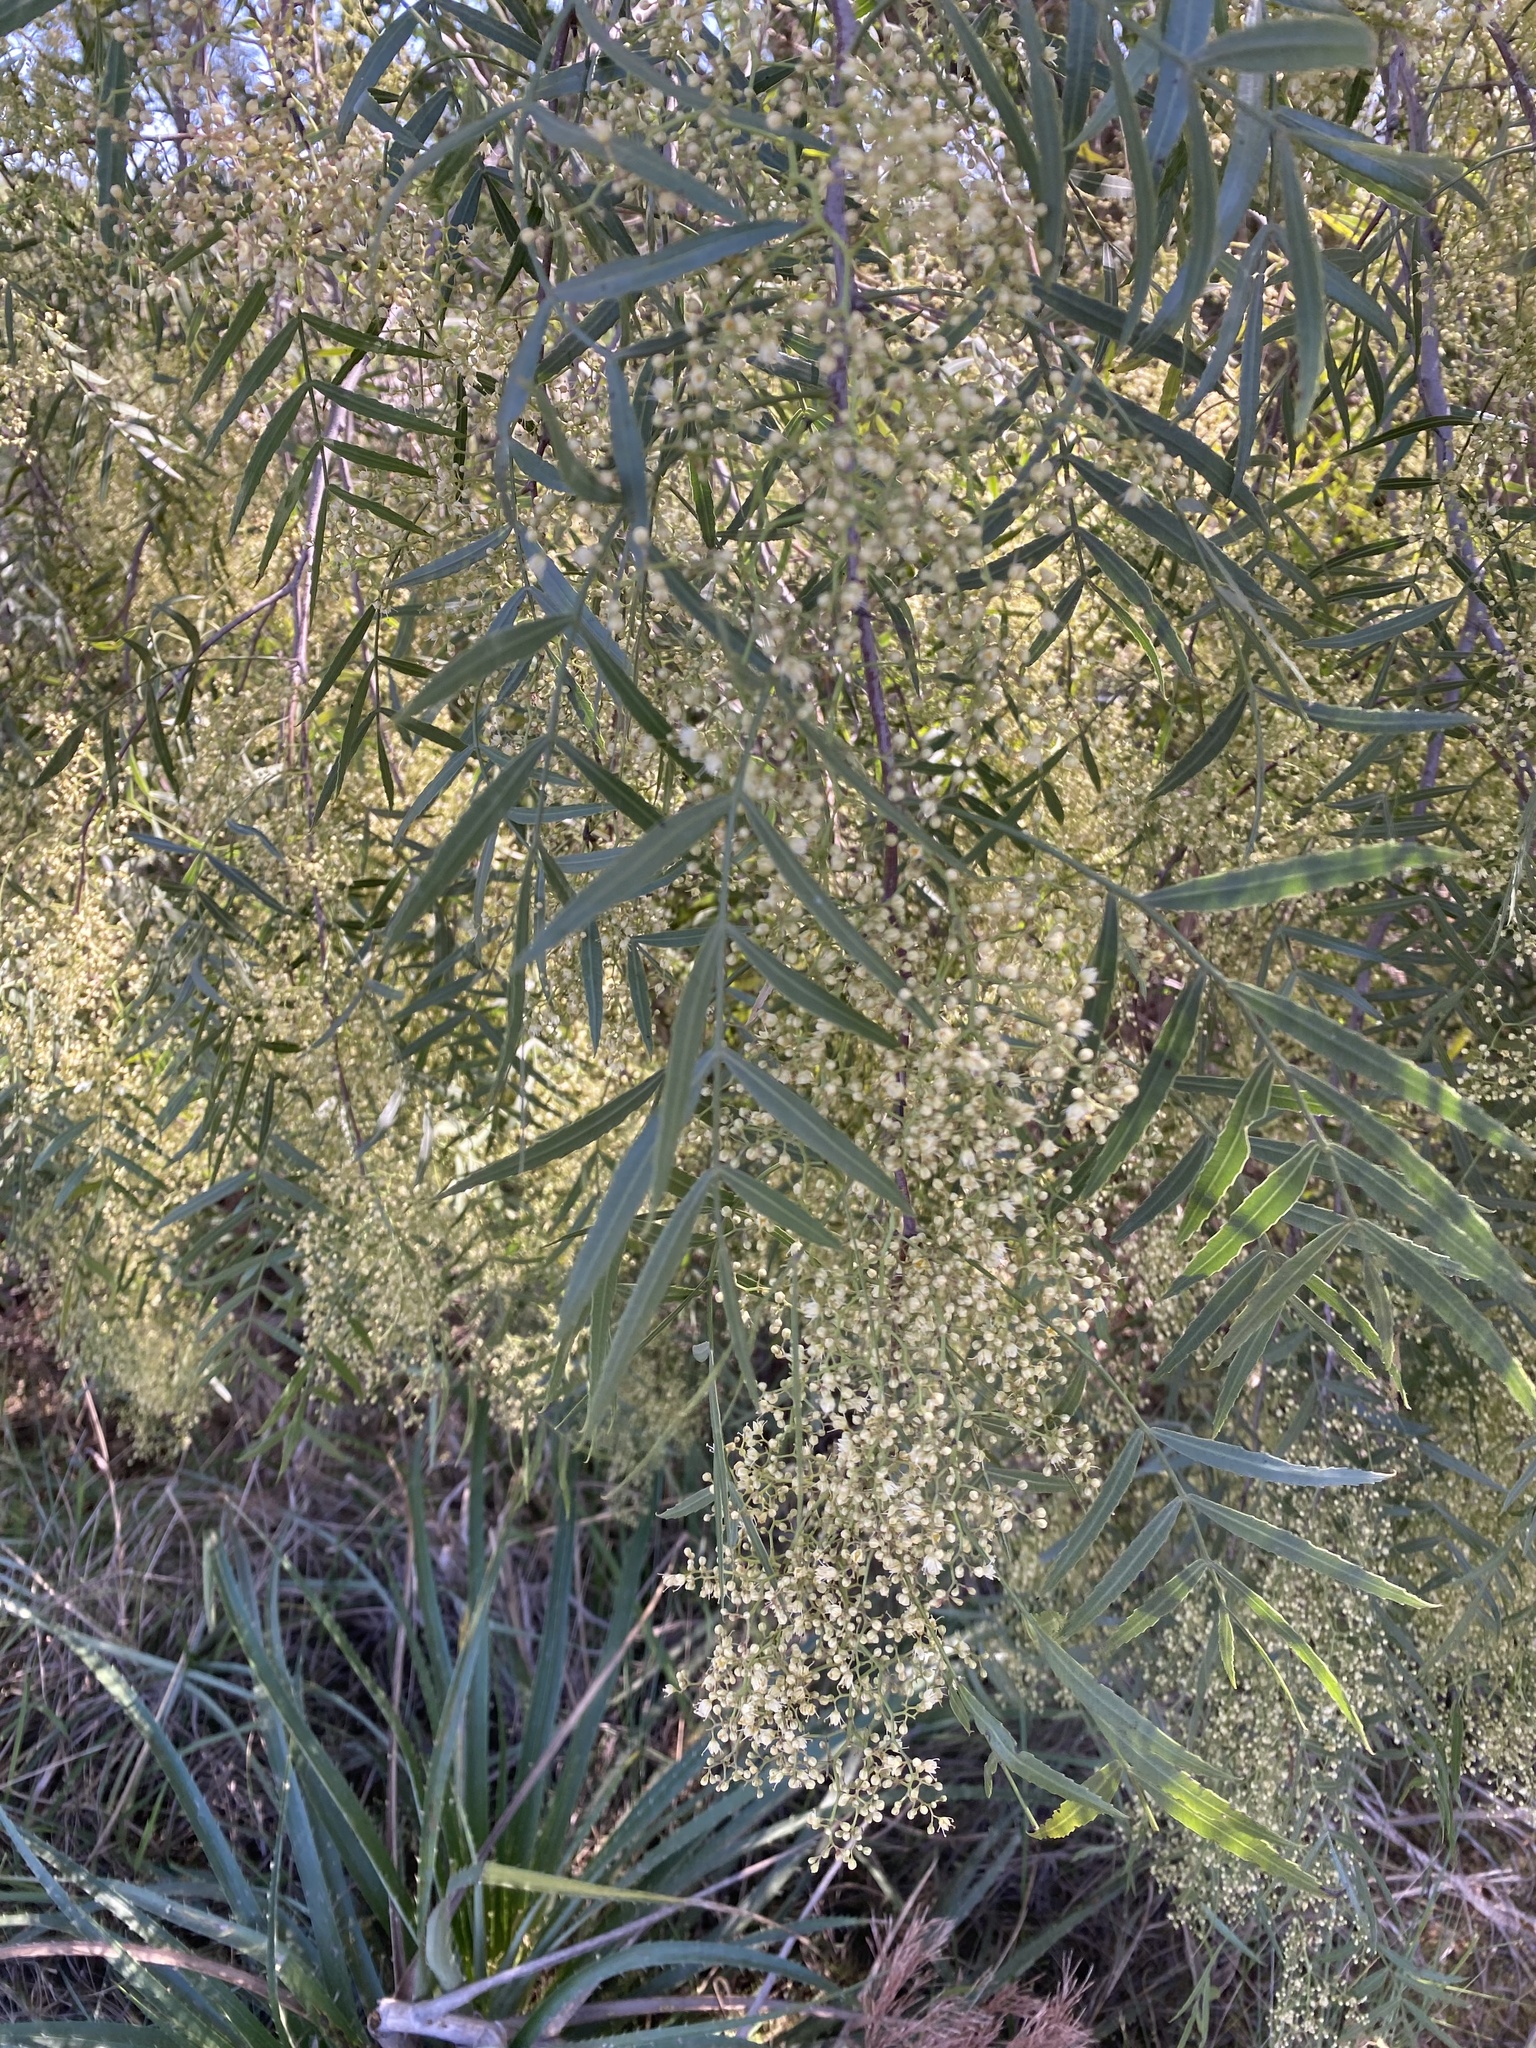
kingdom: Plantae
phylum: Tracheophyta
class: Magnoliopsida
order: Sapindales
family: Anacardiaceae
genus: Schinus
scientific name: Schinus molle
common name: Peruvian peppertree
